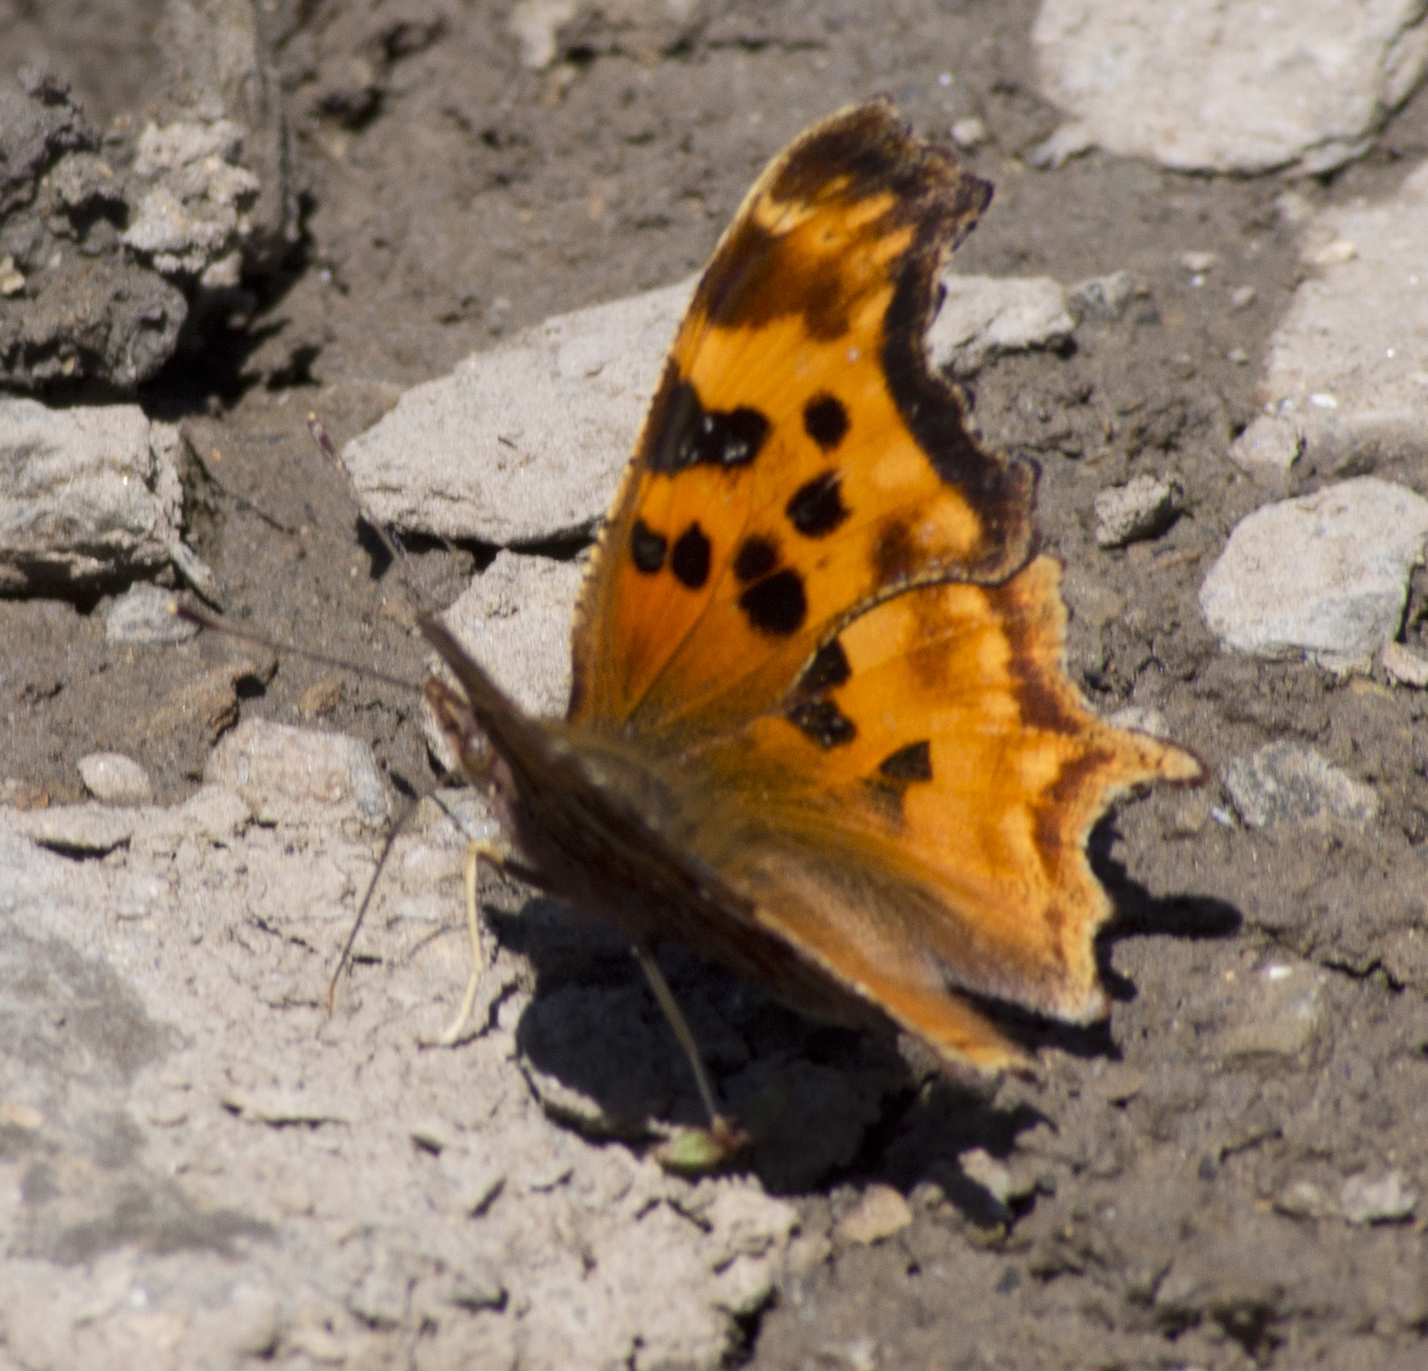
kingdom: Animalia
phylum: Arthropoda
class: Insecta
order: Lepidoptera
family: Nymphalidae
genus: Polygonia
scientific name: Polygonia satyrus
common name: Satyr angle wing
